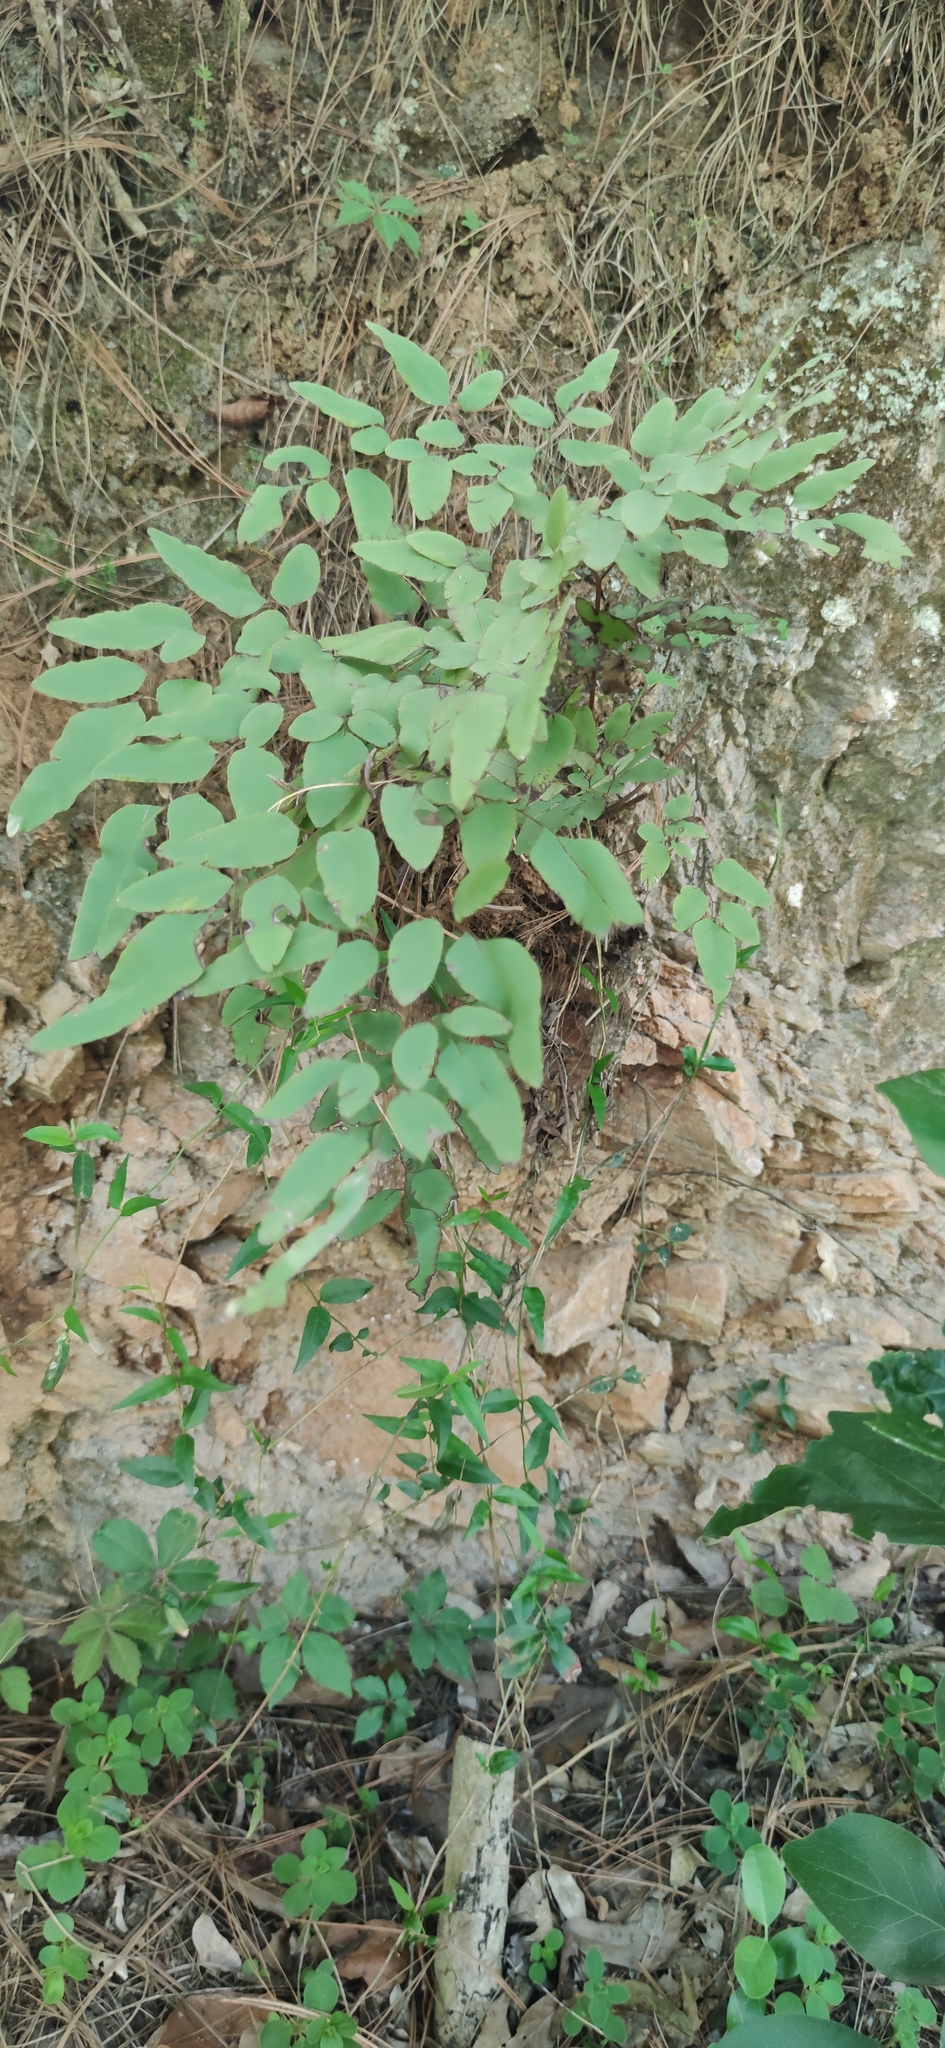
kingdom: Plantae
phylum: Tracheophyta
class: Polypodiopsida
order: Polypodiales
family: Pteridaceae
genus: Llavea
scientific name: Llavea cordifolia
